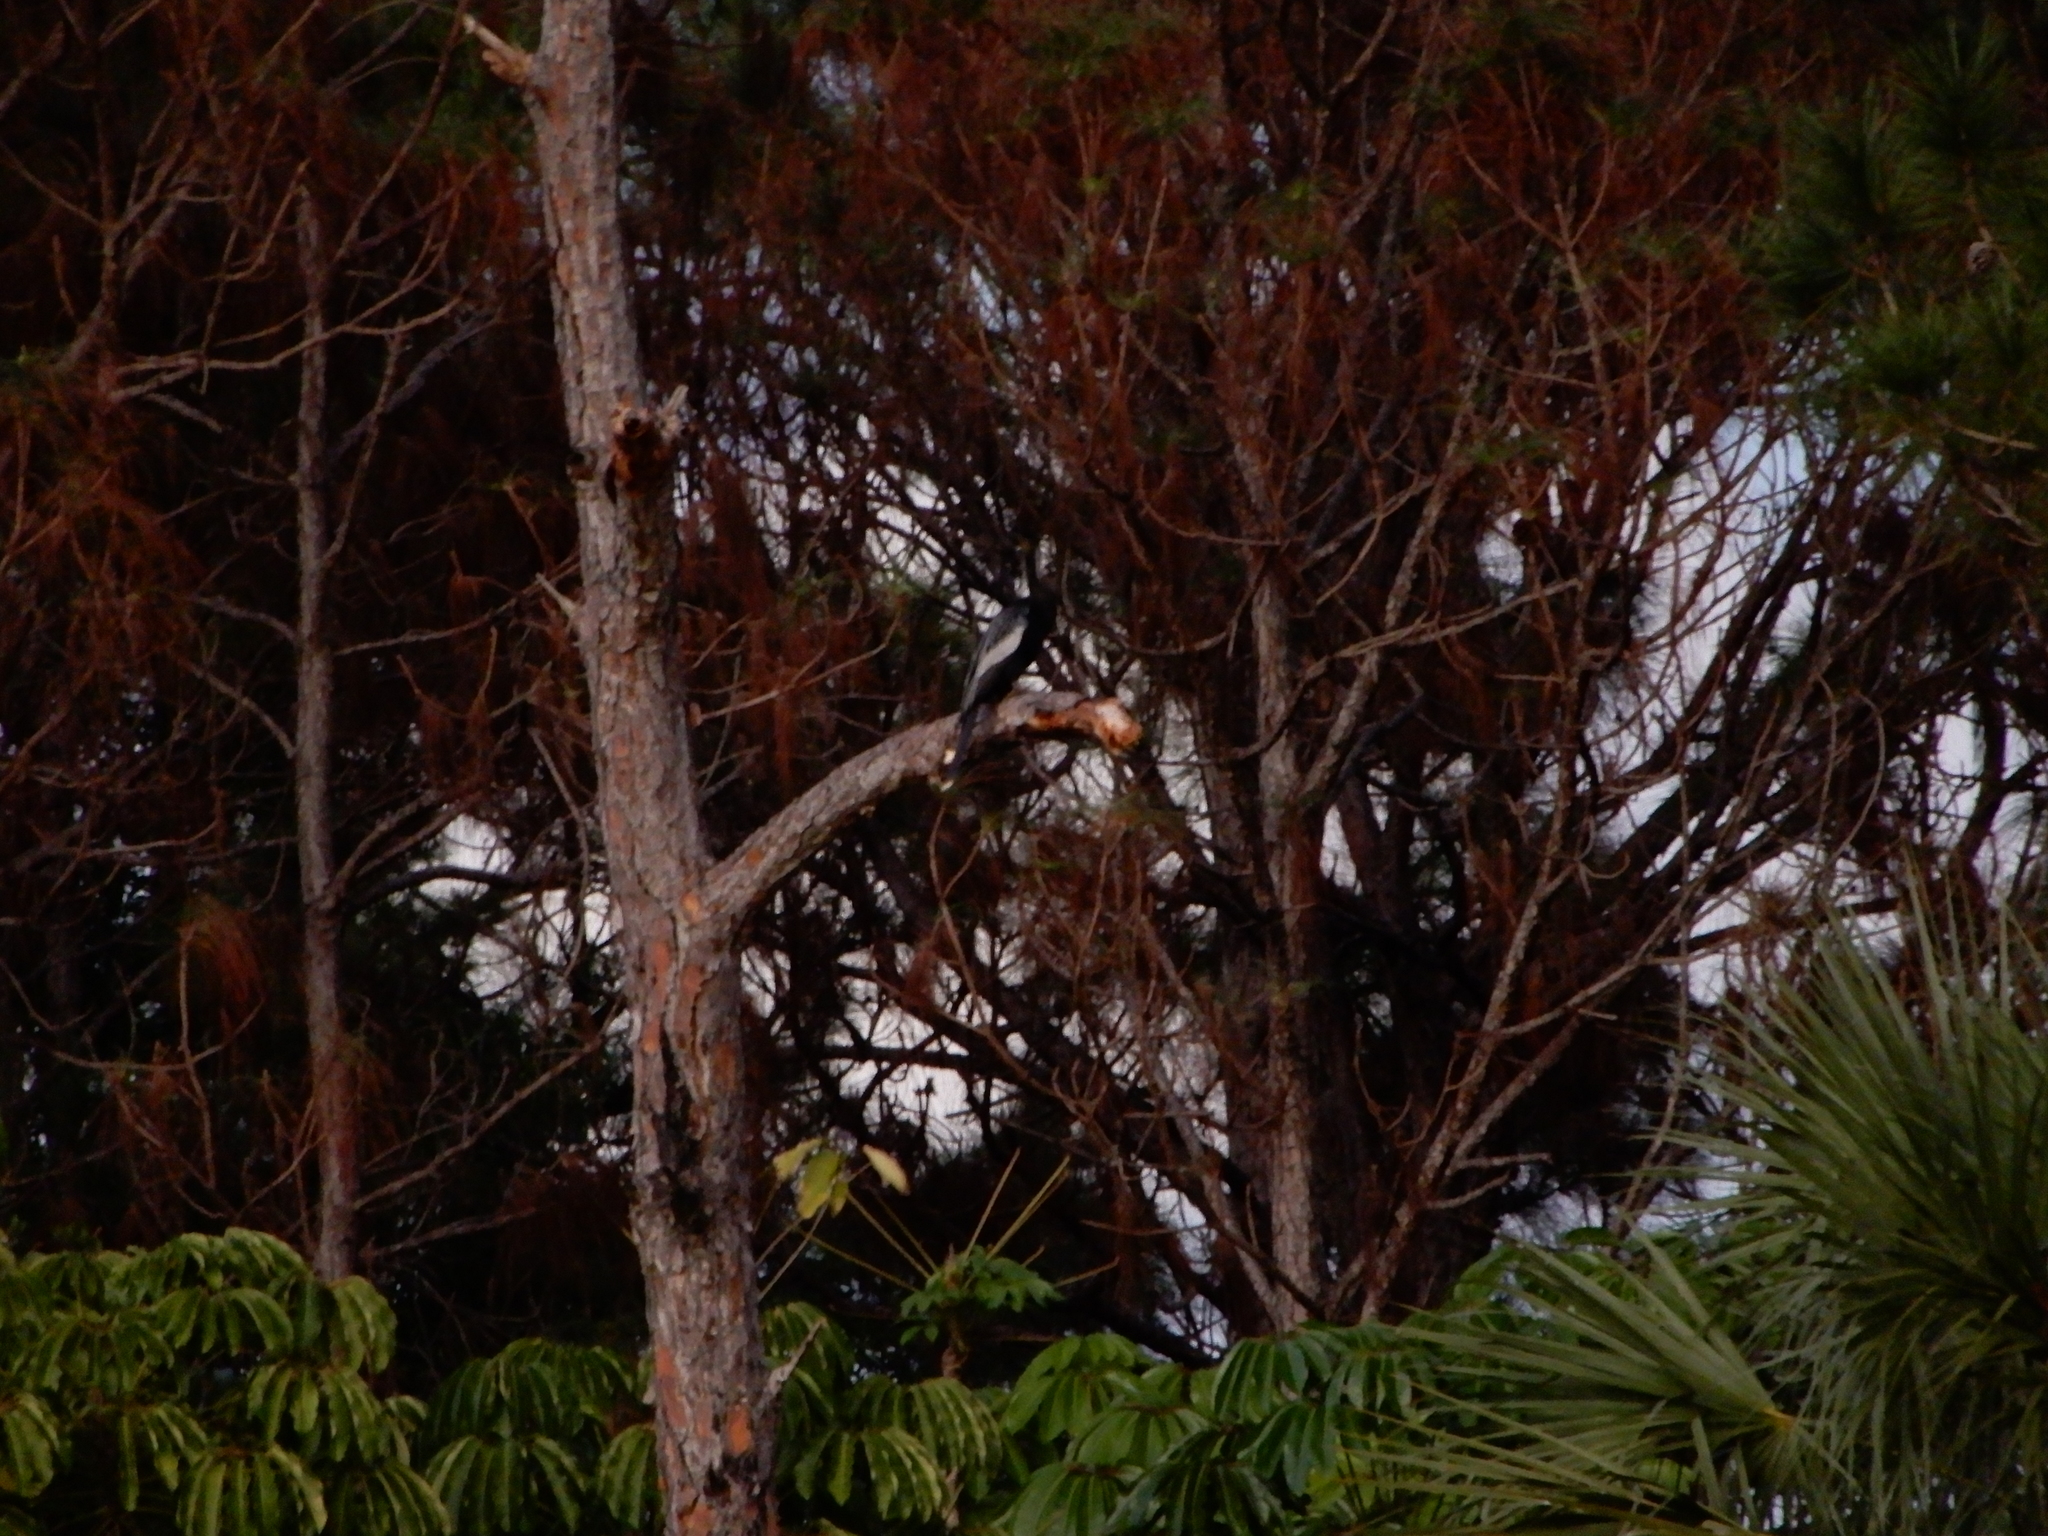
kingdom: Animalia
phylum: Chordata
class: Aves
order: Suliformes
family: Anhingidae
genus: Anhinga
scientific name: Anhinga anhinga
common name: Anhinga
